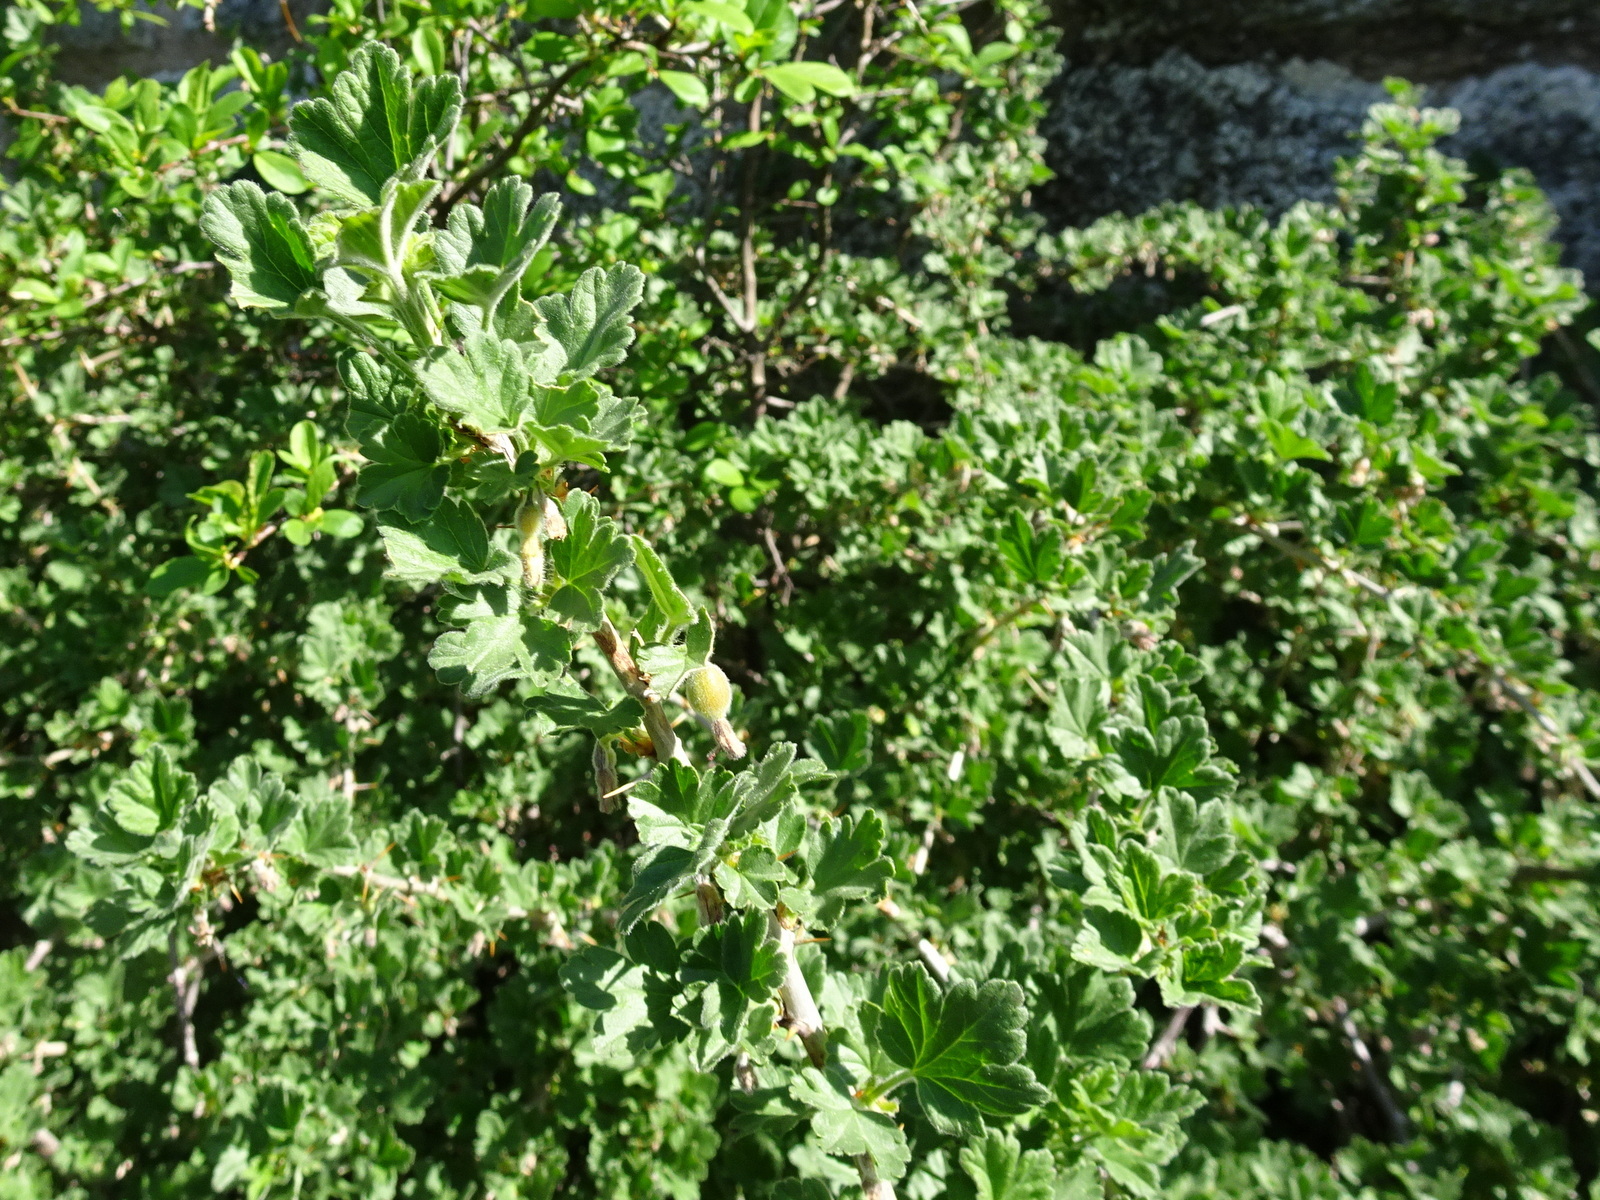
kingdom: Plantae
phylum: Tracheophyta
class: Magnoliopsida
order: Saxifragales
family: Grossulariaceae
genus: Ribes
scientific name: Ribes uva-crispa
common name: Gooseberry
